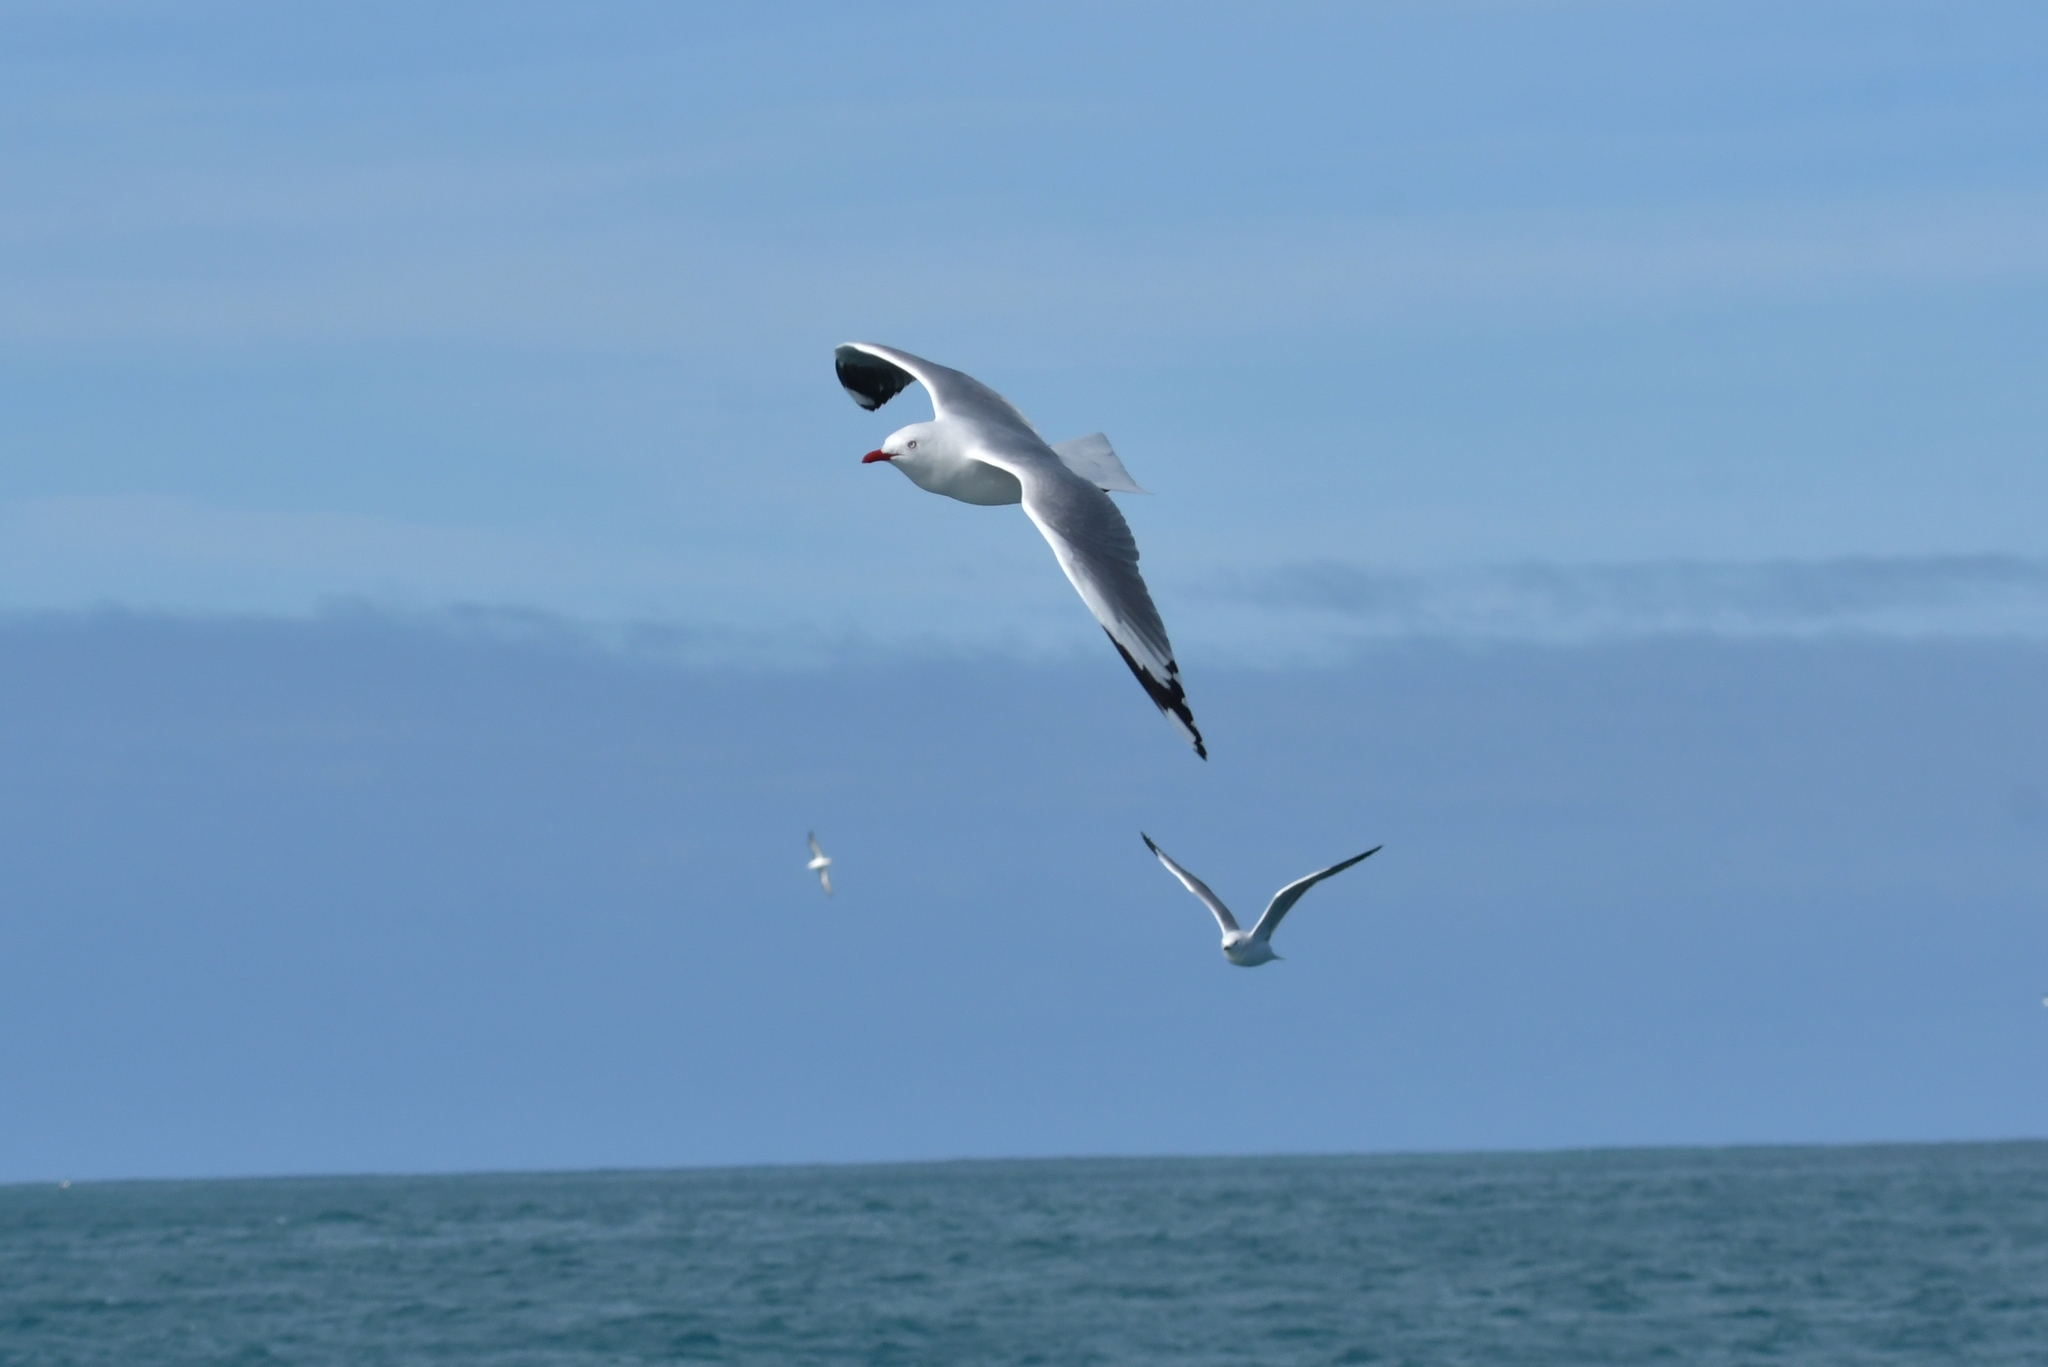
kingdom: Animalia
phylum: Chordata
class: Aves
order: Charadriiformes
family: Laridae
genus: Chroicocephalus
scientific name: Chroicocephalus novaehollandiae
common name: Silver gull
